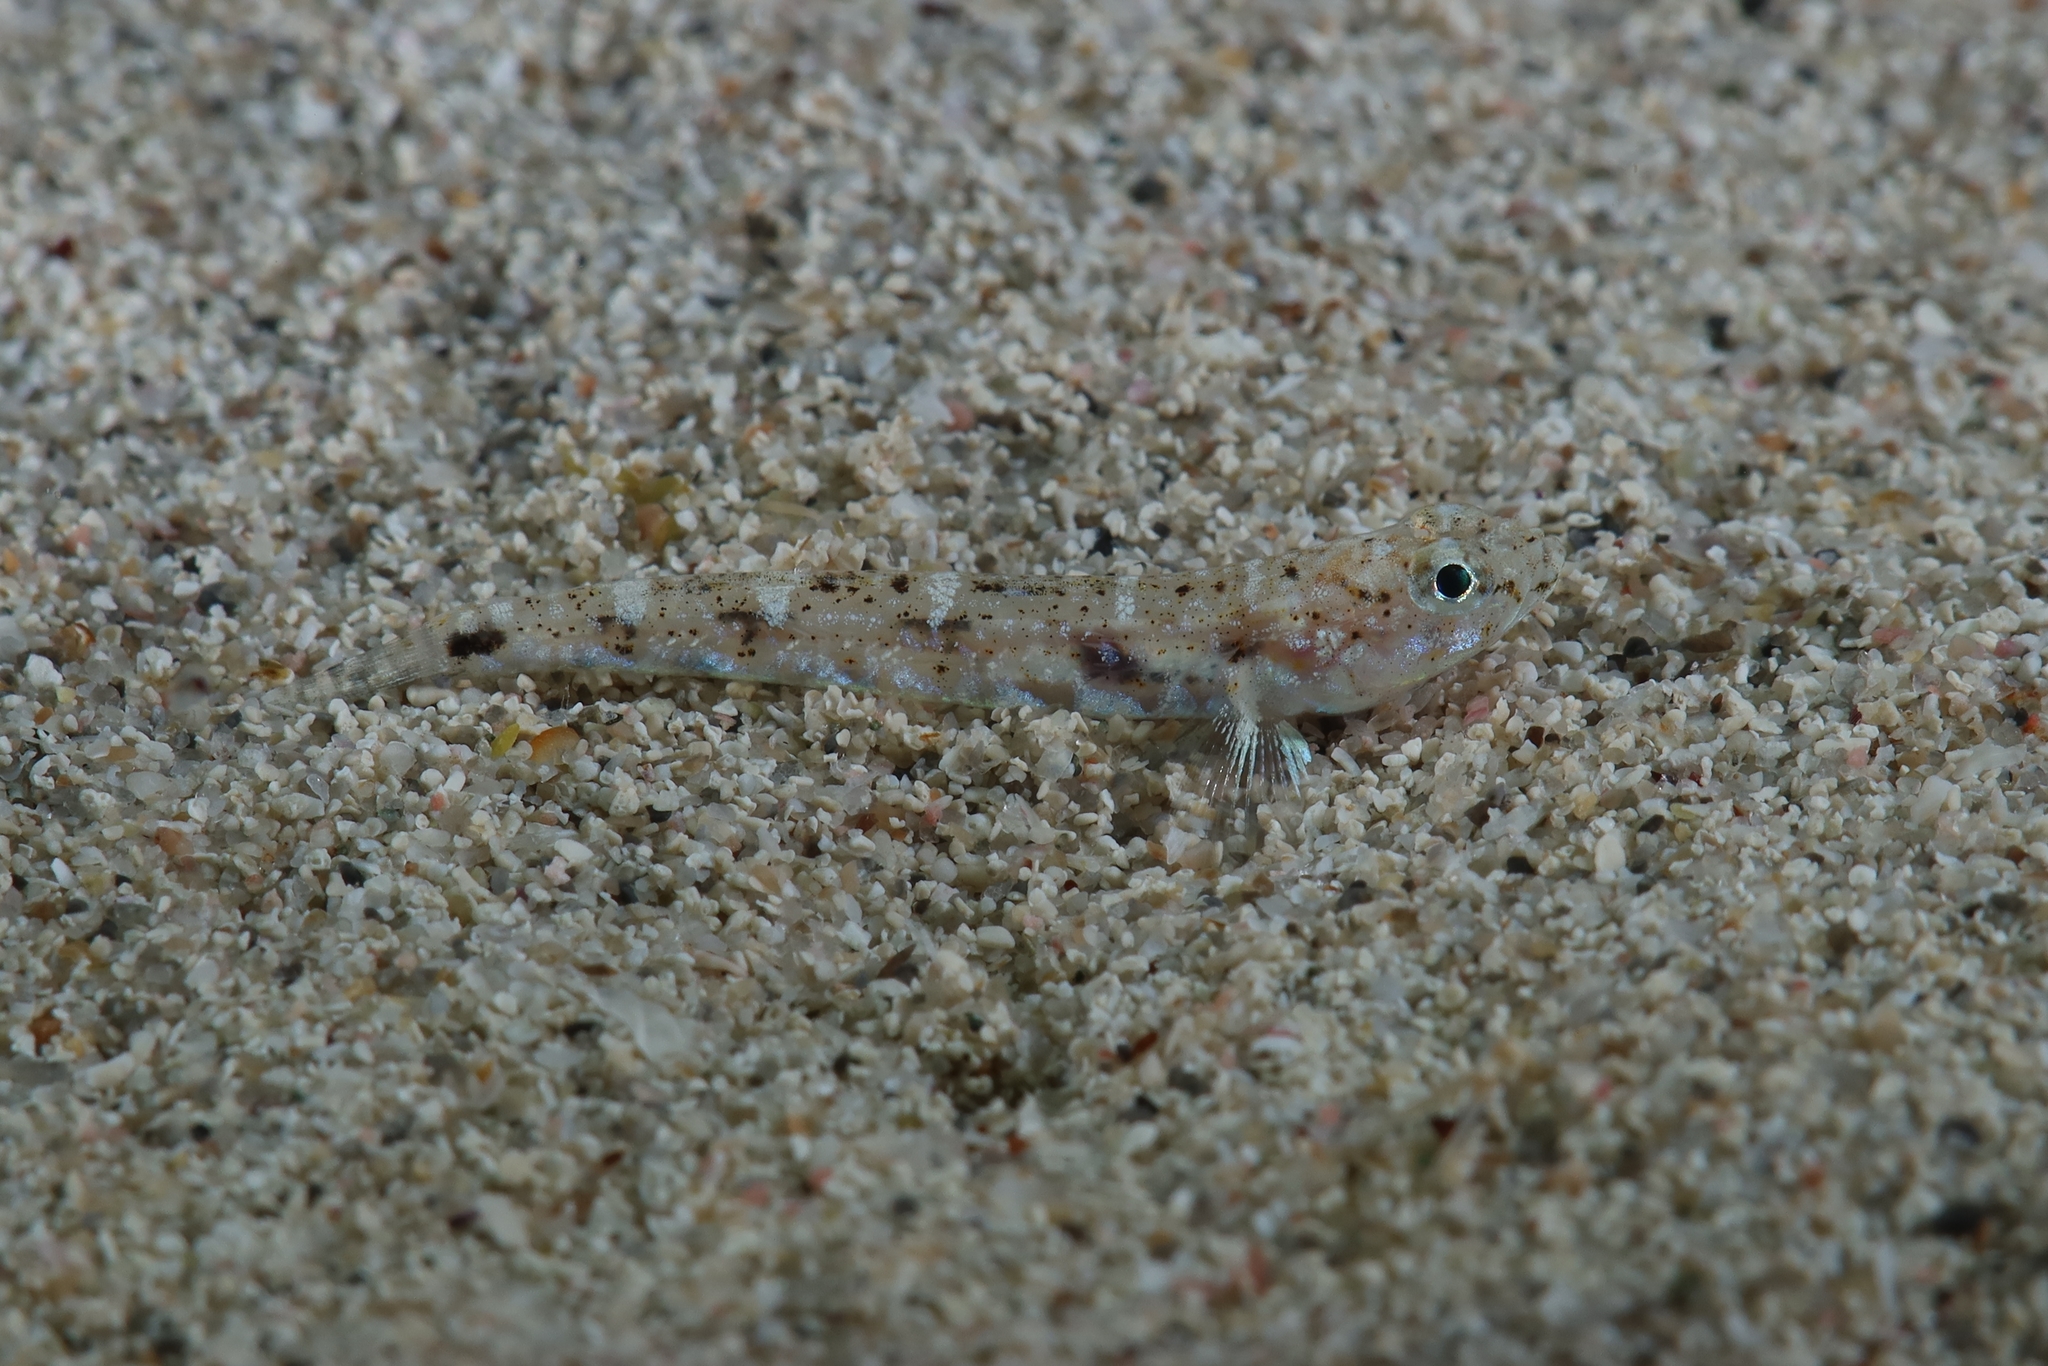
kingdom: Animalia
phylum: Chordata
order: Perciformes
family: Gobiidae
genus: Pomatoschistus
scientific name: Pomatoschistus marmoratus
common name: Marbled goby
